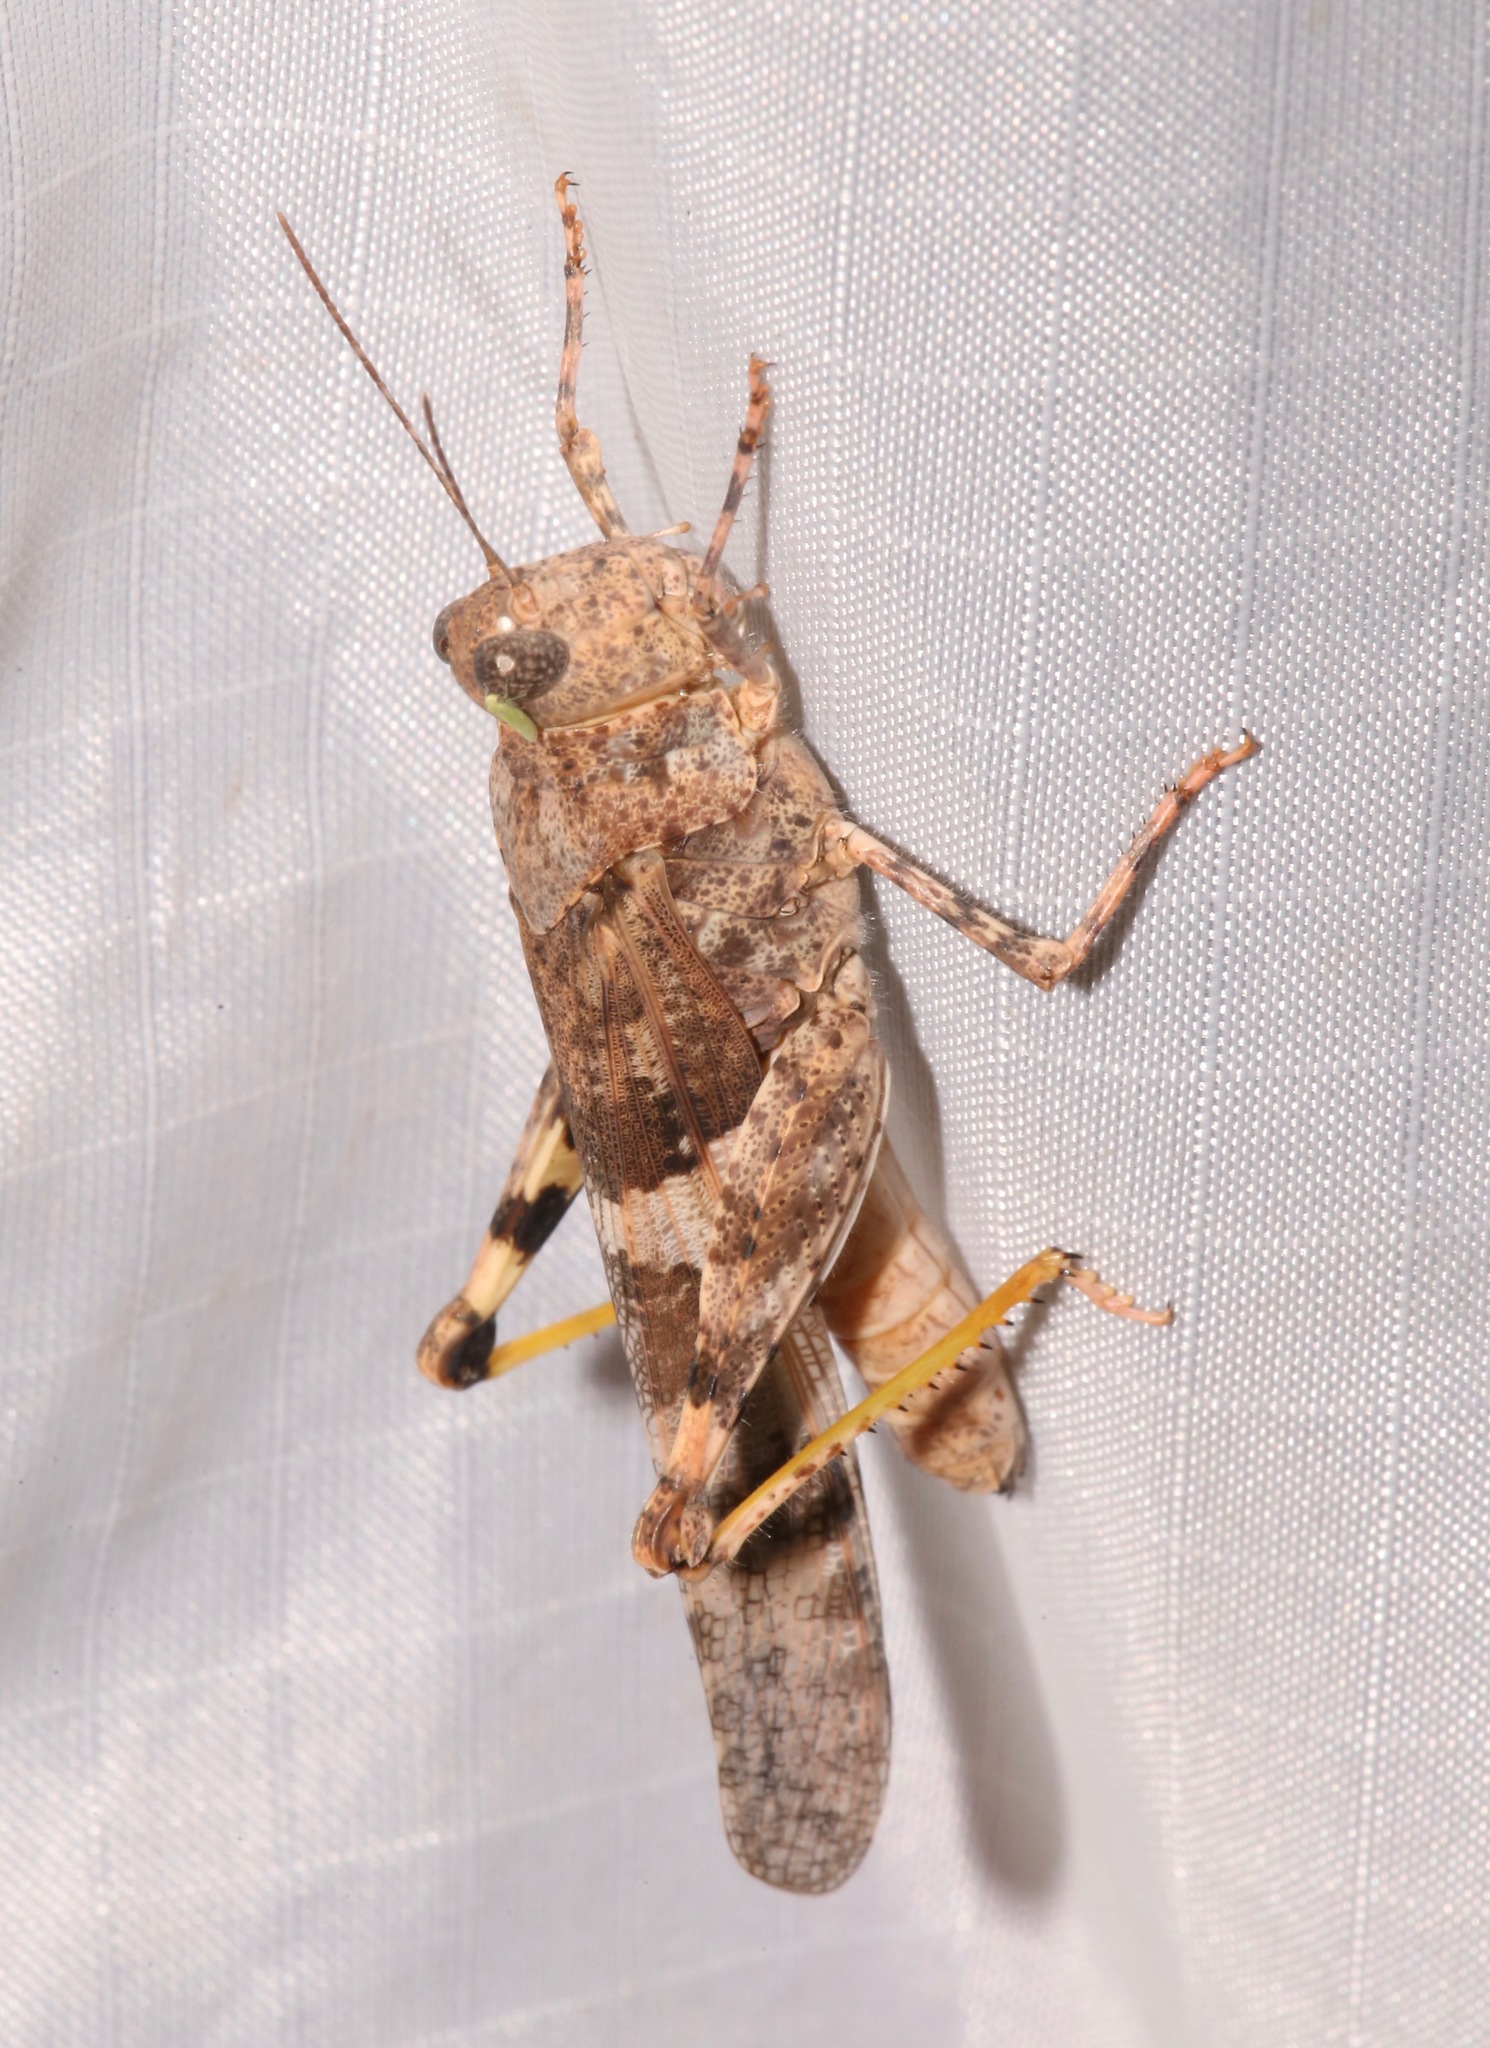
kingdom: Animalia
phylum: Arthropoda
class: Insecta
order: Orthoptera
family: Acrididae
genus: Trimerotropis
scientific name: Trimerotropis pallidipennis
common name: Pallid-winged grasshopper
